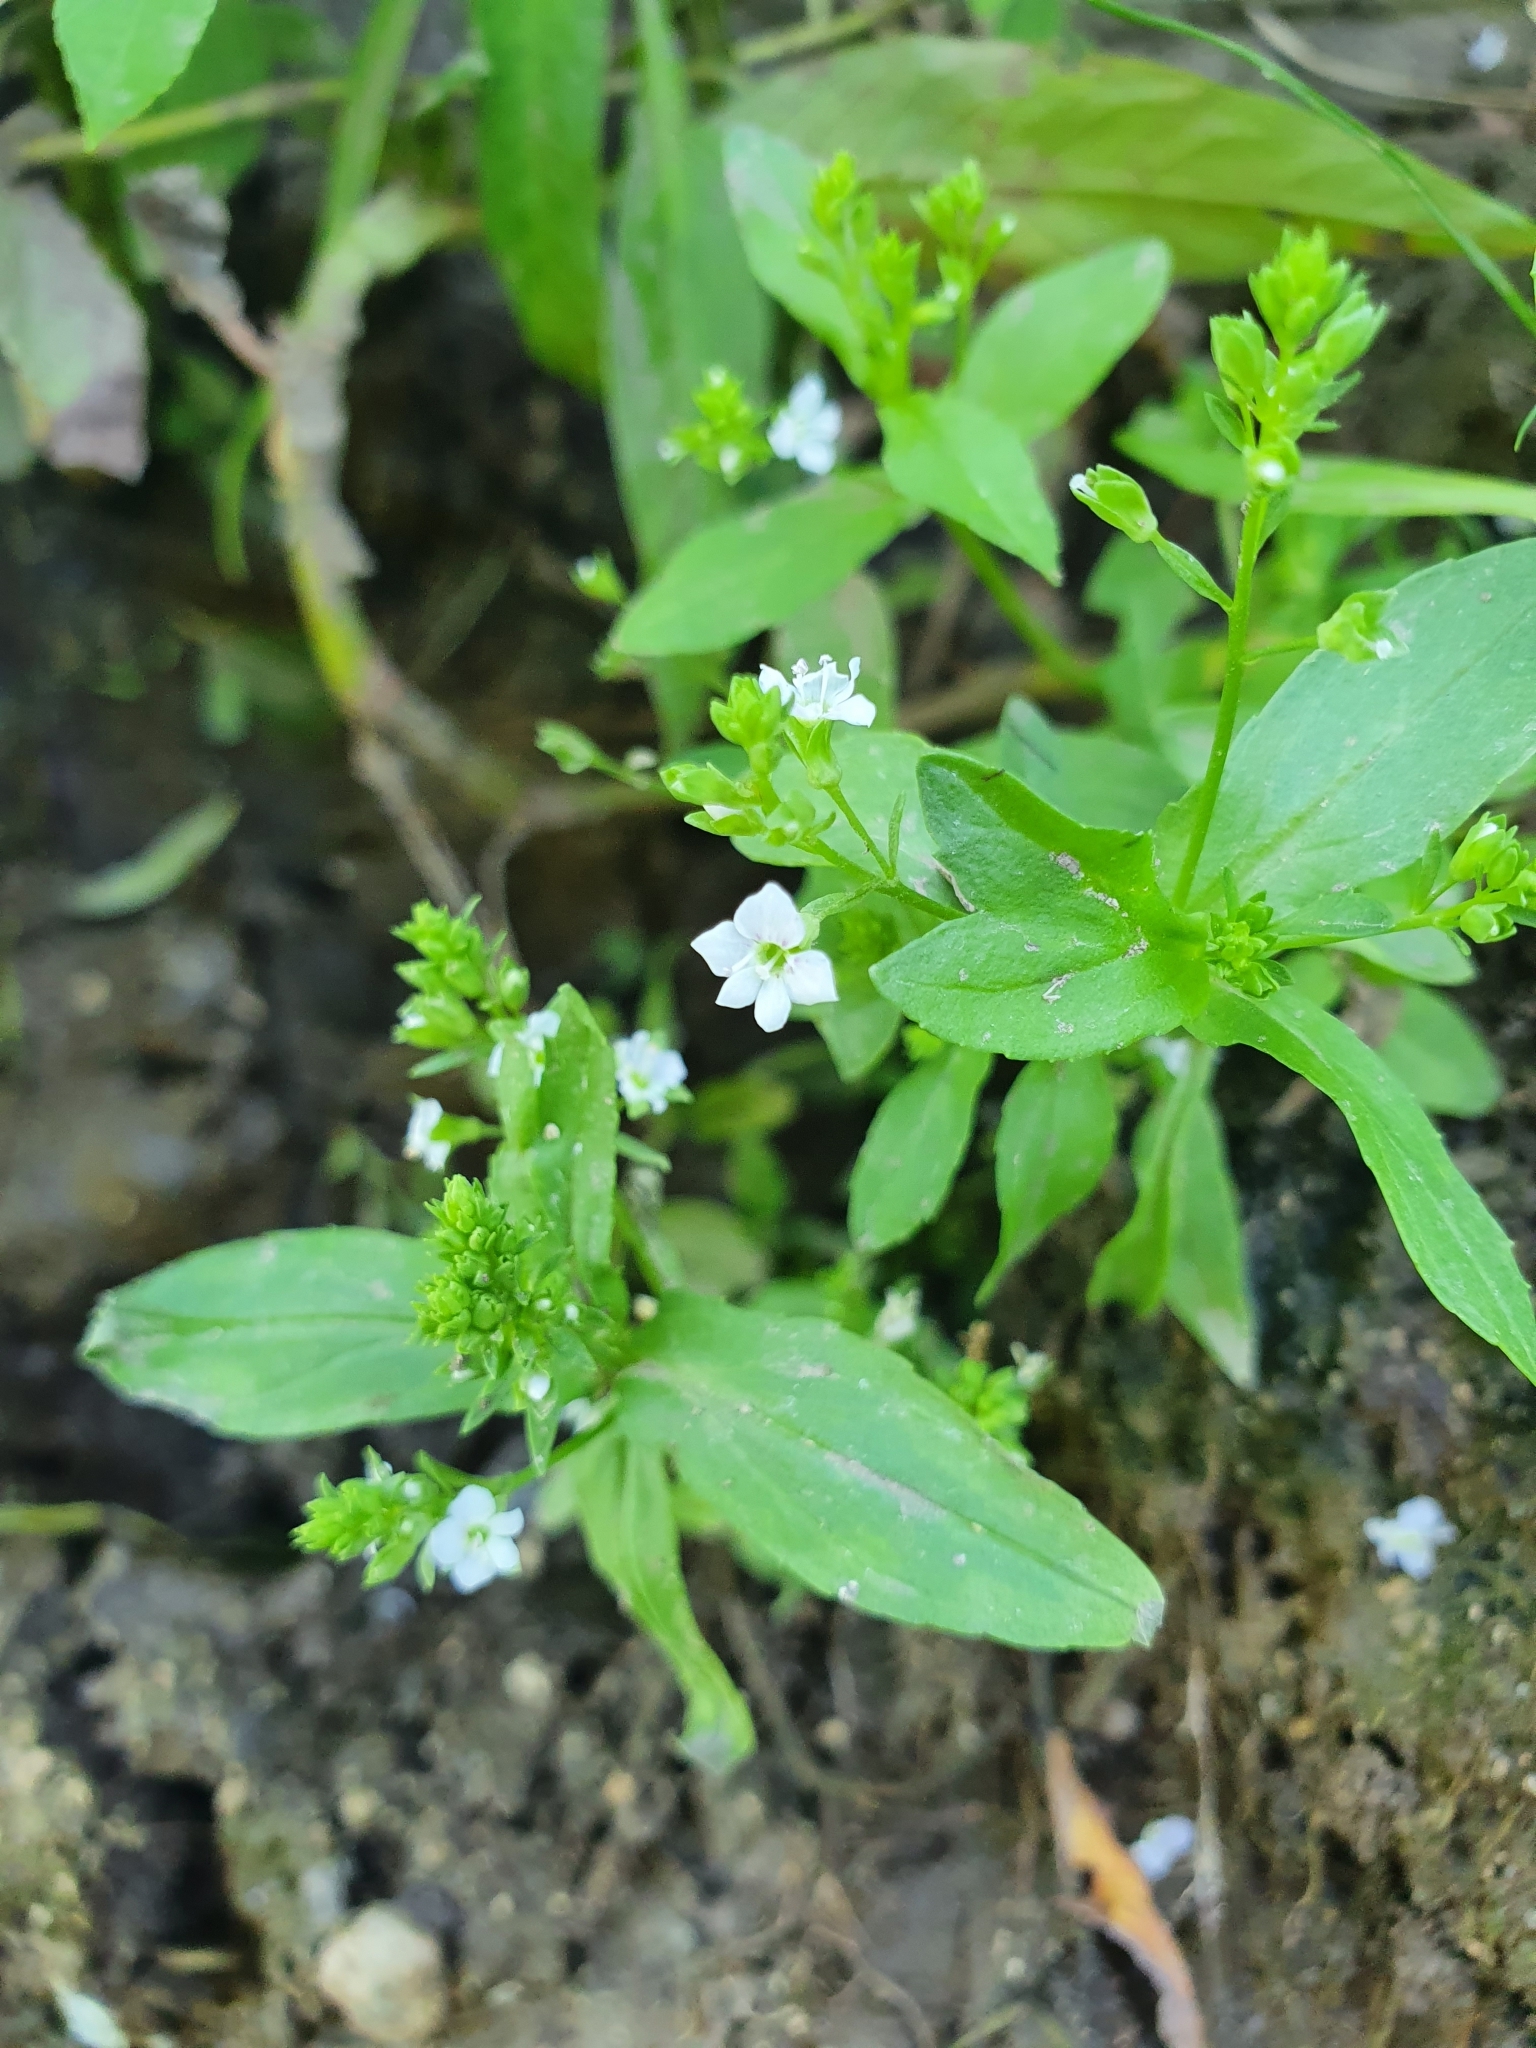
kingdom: Plantae
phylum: Tracheophyta
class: Magnoliopsida
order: Lamiales
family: Plantaginaceae
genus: Veronica
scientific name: Veronica anagallis-aquatica
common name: Water speedwell
